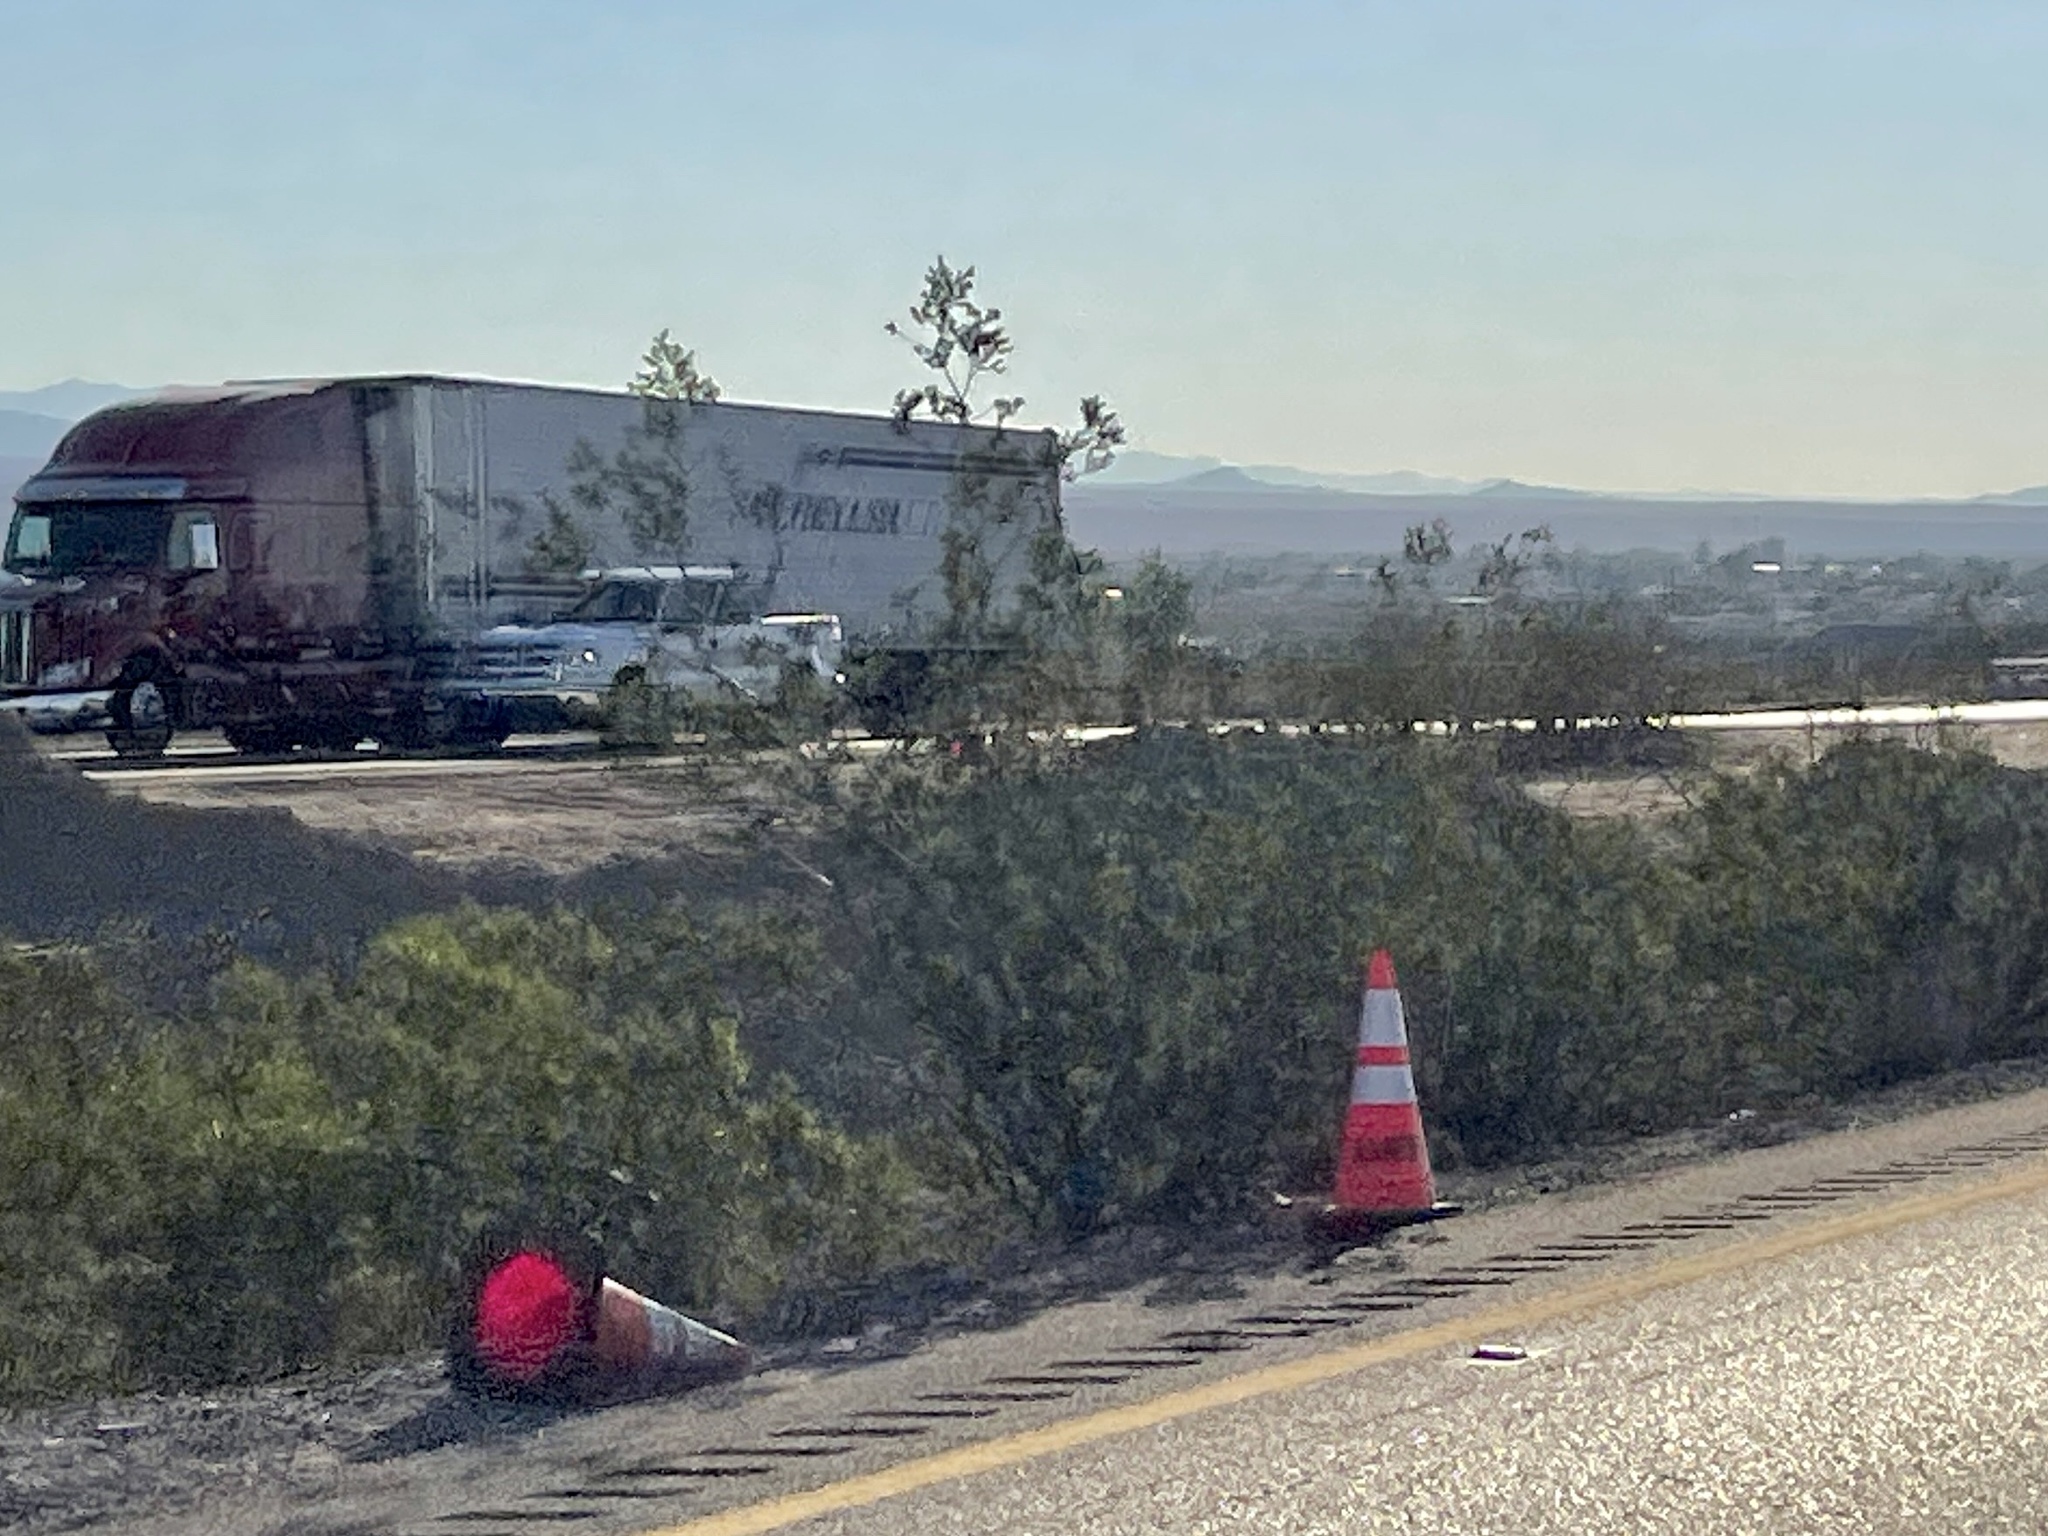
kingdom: Plantae
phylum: Tracheophyta
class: Magnoliopsida
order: Zygophyllales
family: Zygophyllaceae
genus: Larrea
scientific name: Larrea tridentata
